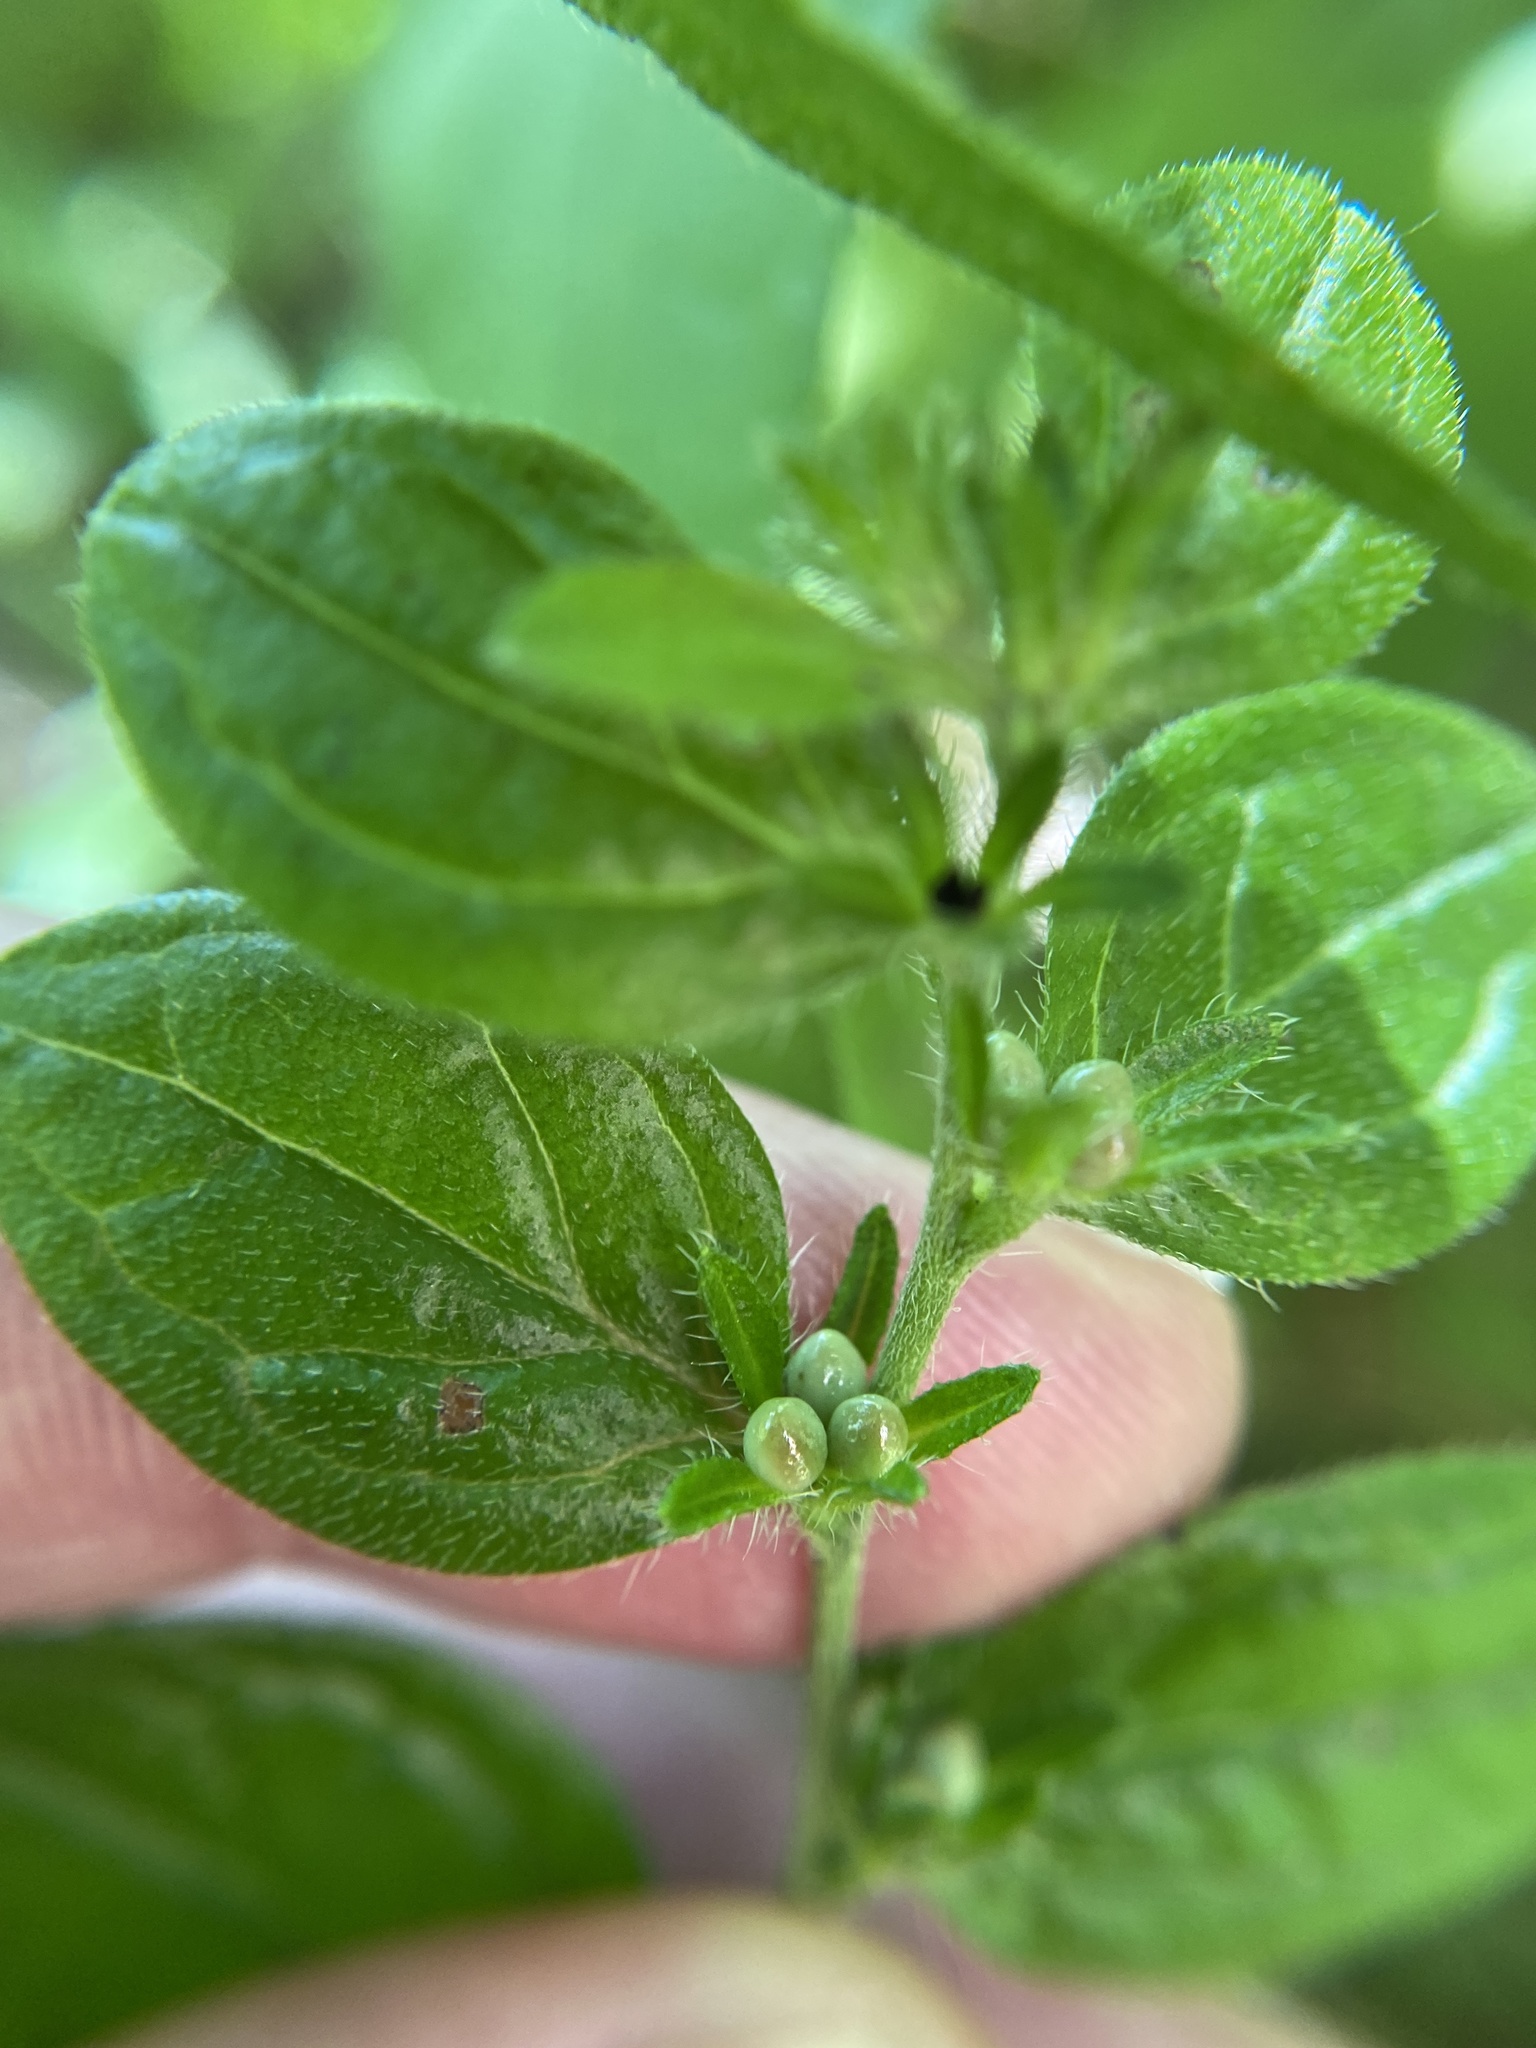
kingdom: Plantae
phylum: Tracheophyta
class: Magnoliopsida
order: Boraginales
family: Boraginaceae
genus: Lithospermum
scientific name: Lithospermum tuberosum
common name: Southern stoneseed
